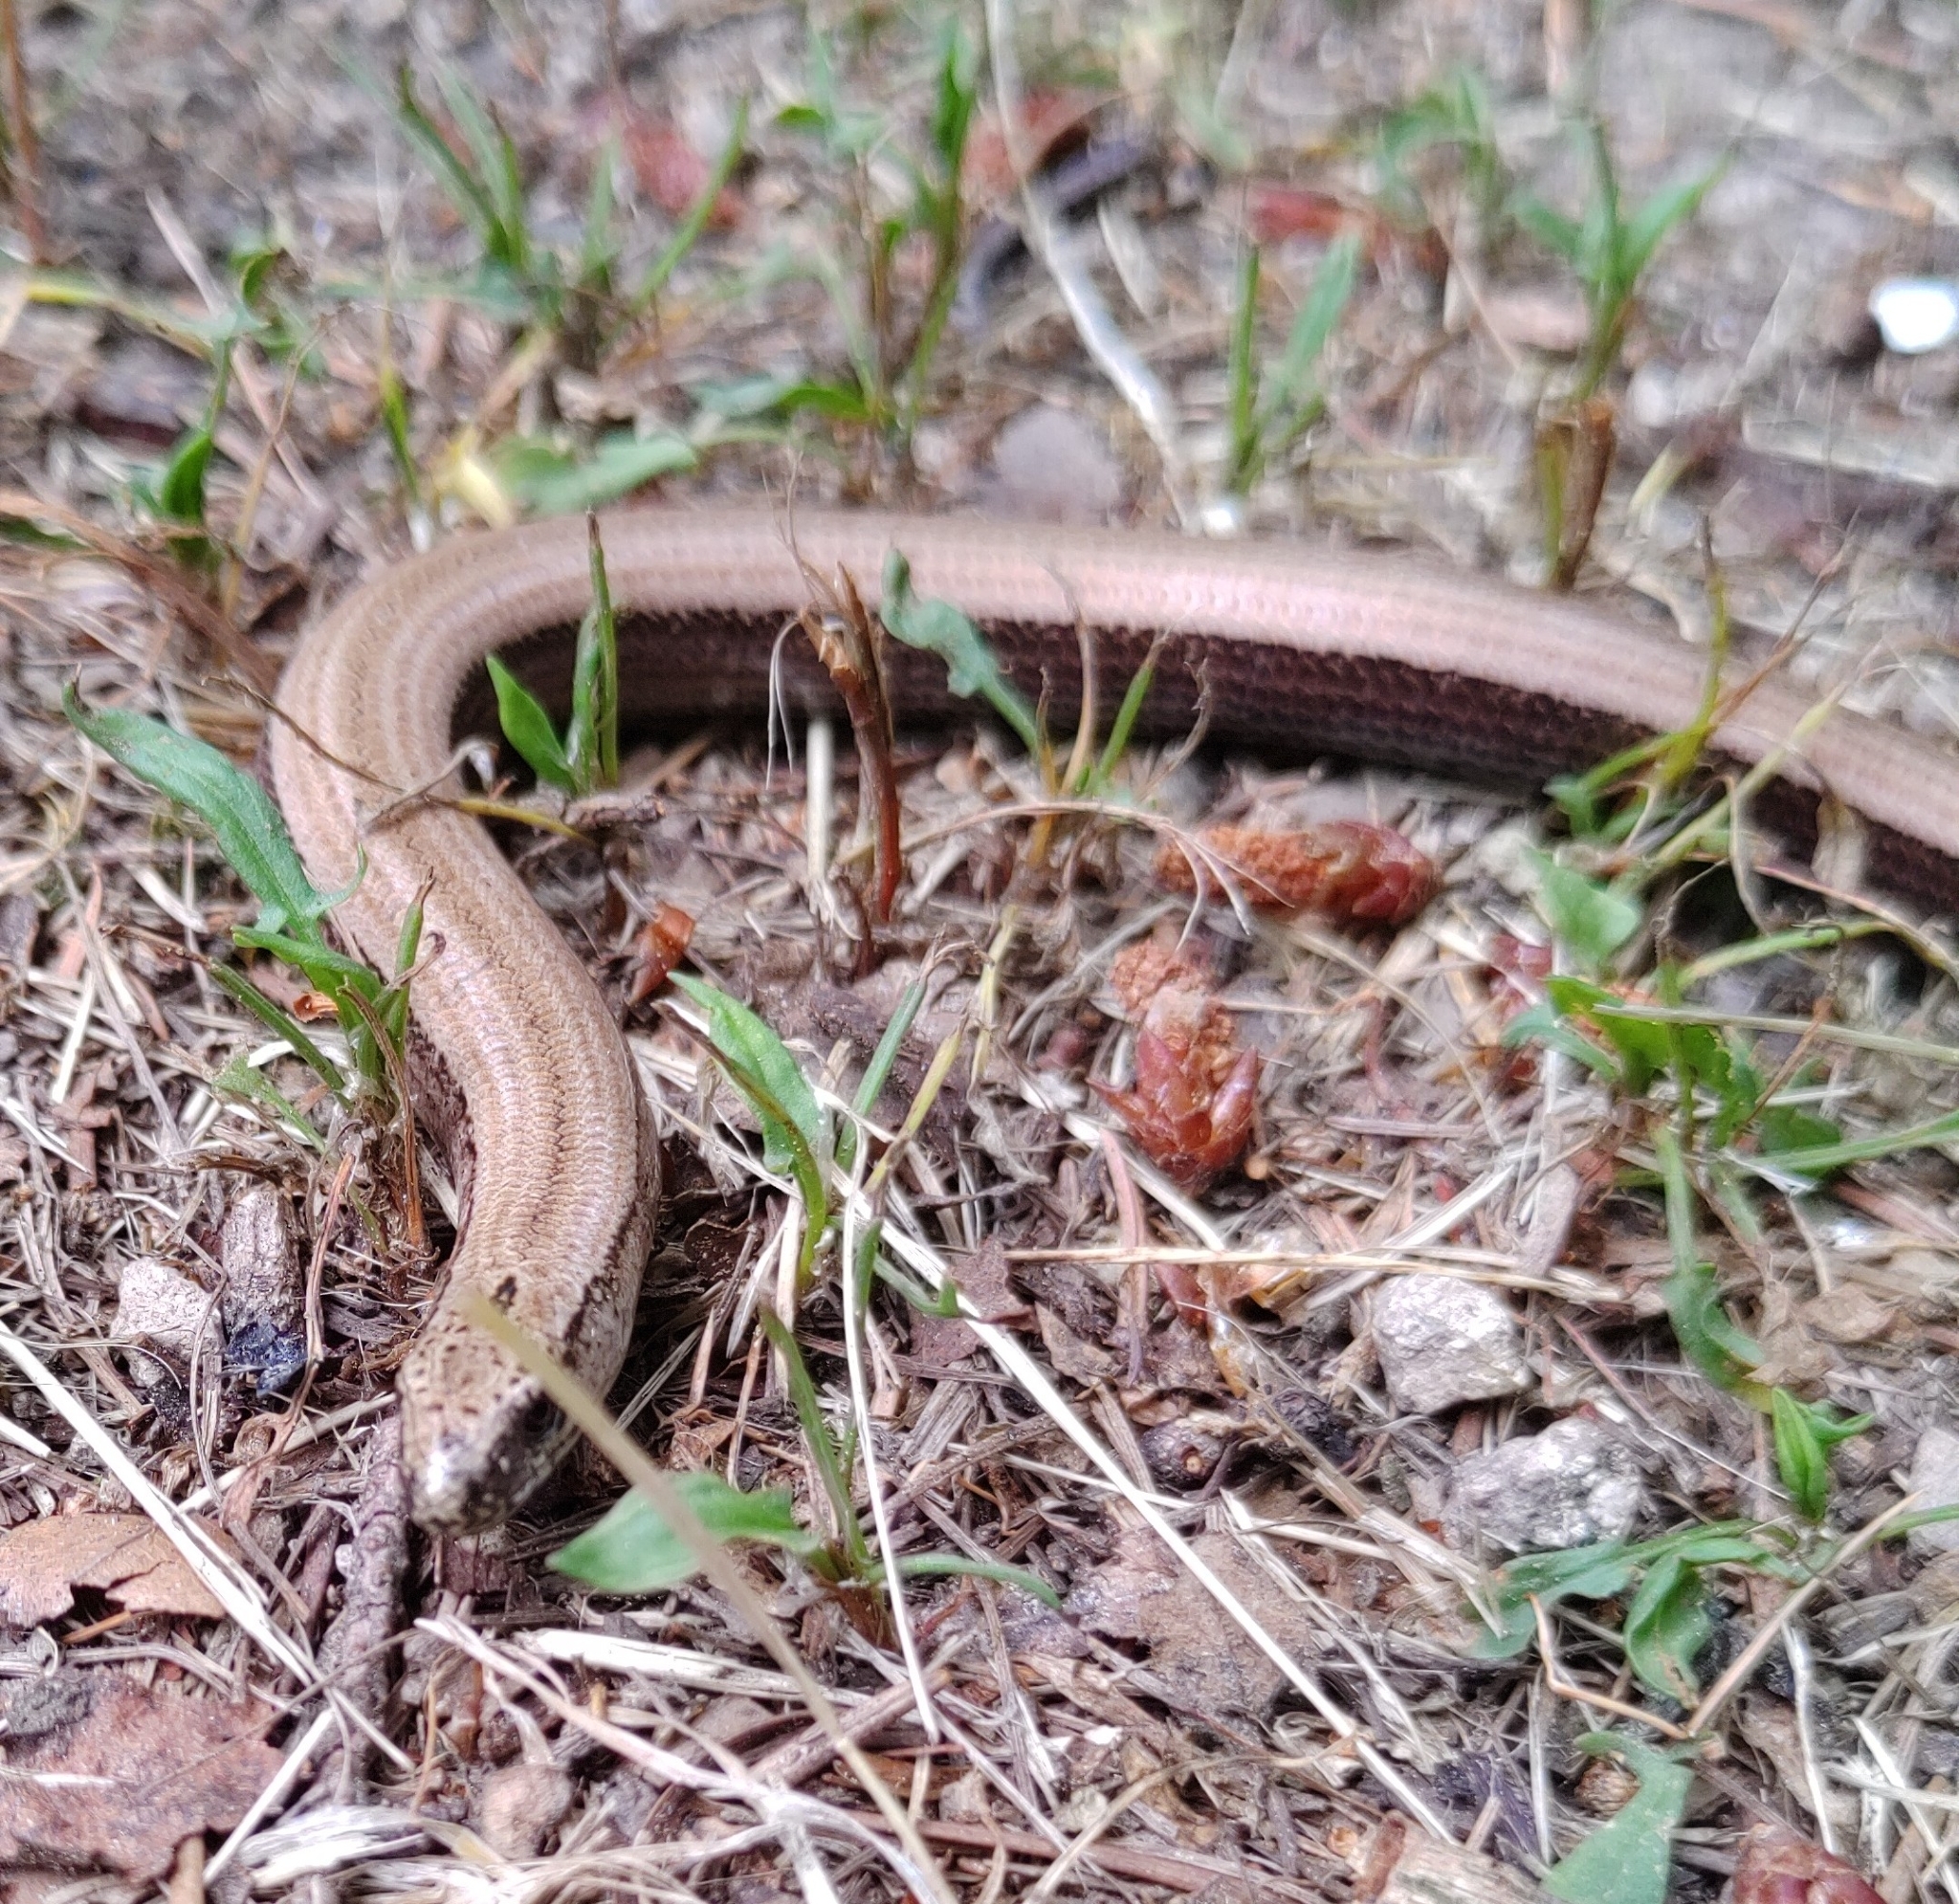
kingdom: Animalia
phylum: Chordata
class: Squamata
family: Anguidae
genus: Anguis
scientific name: Anguis fragilis
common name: Slow worm
